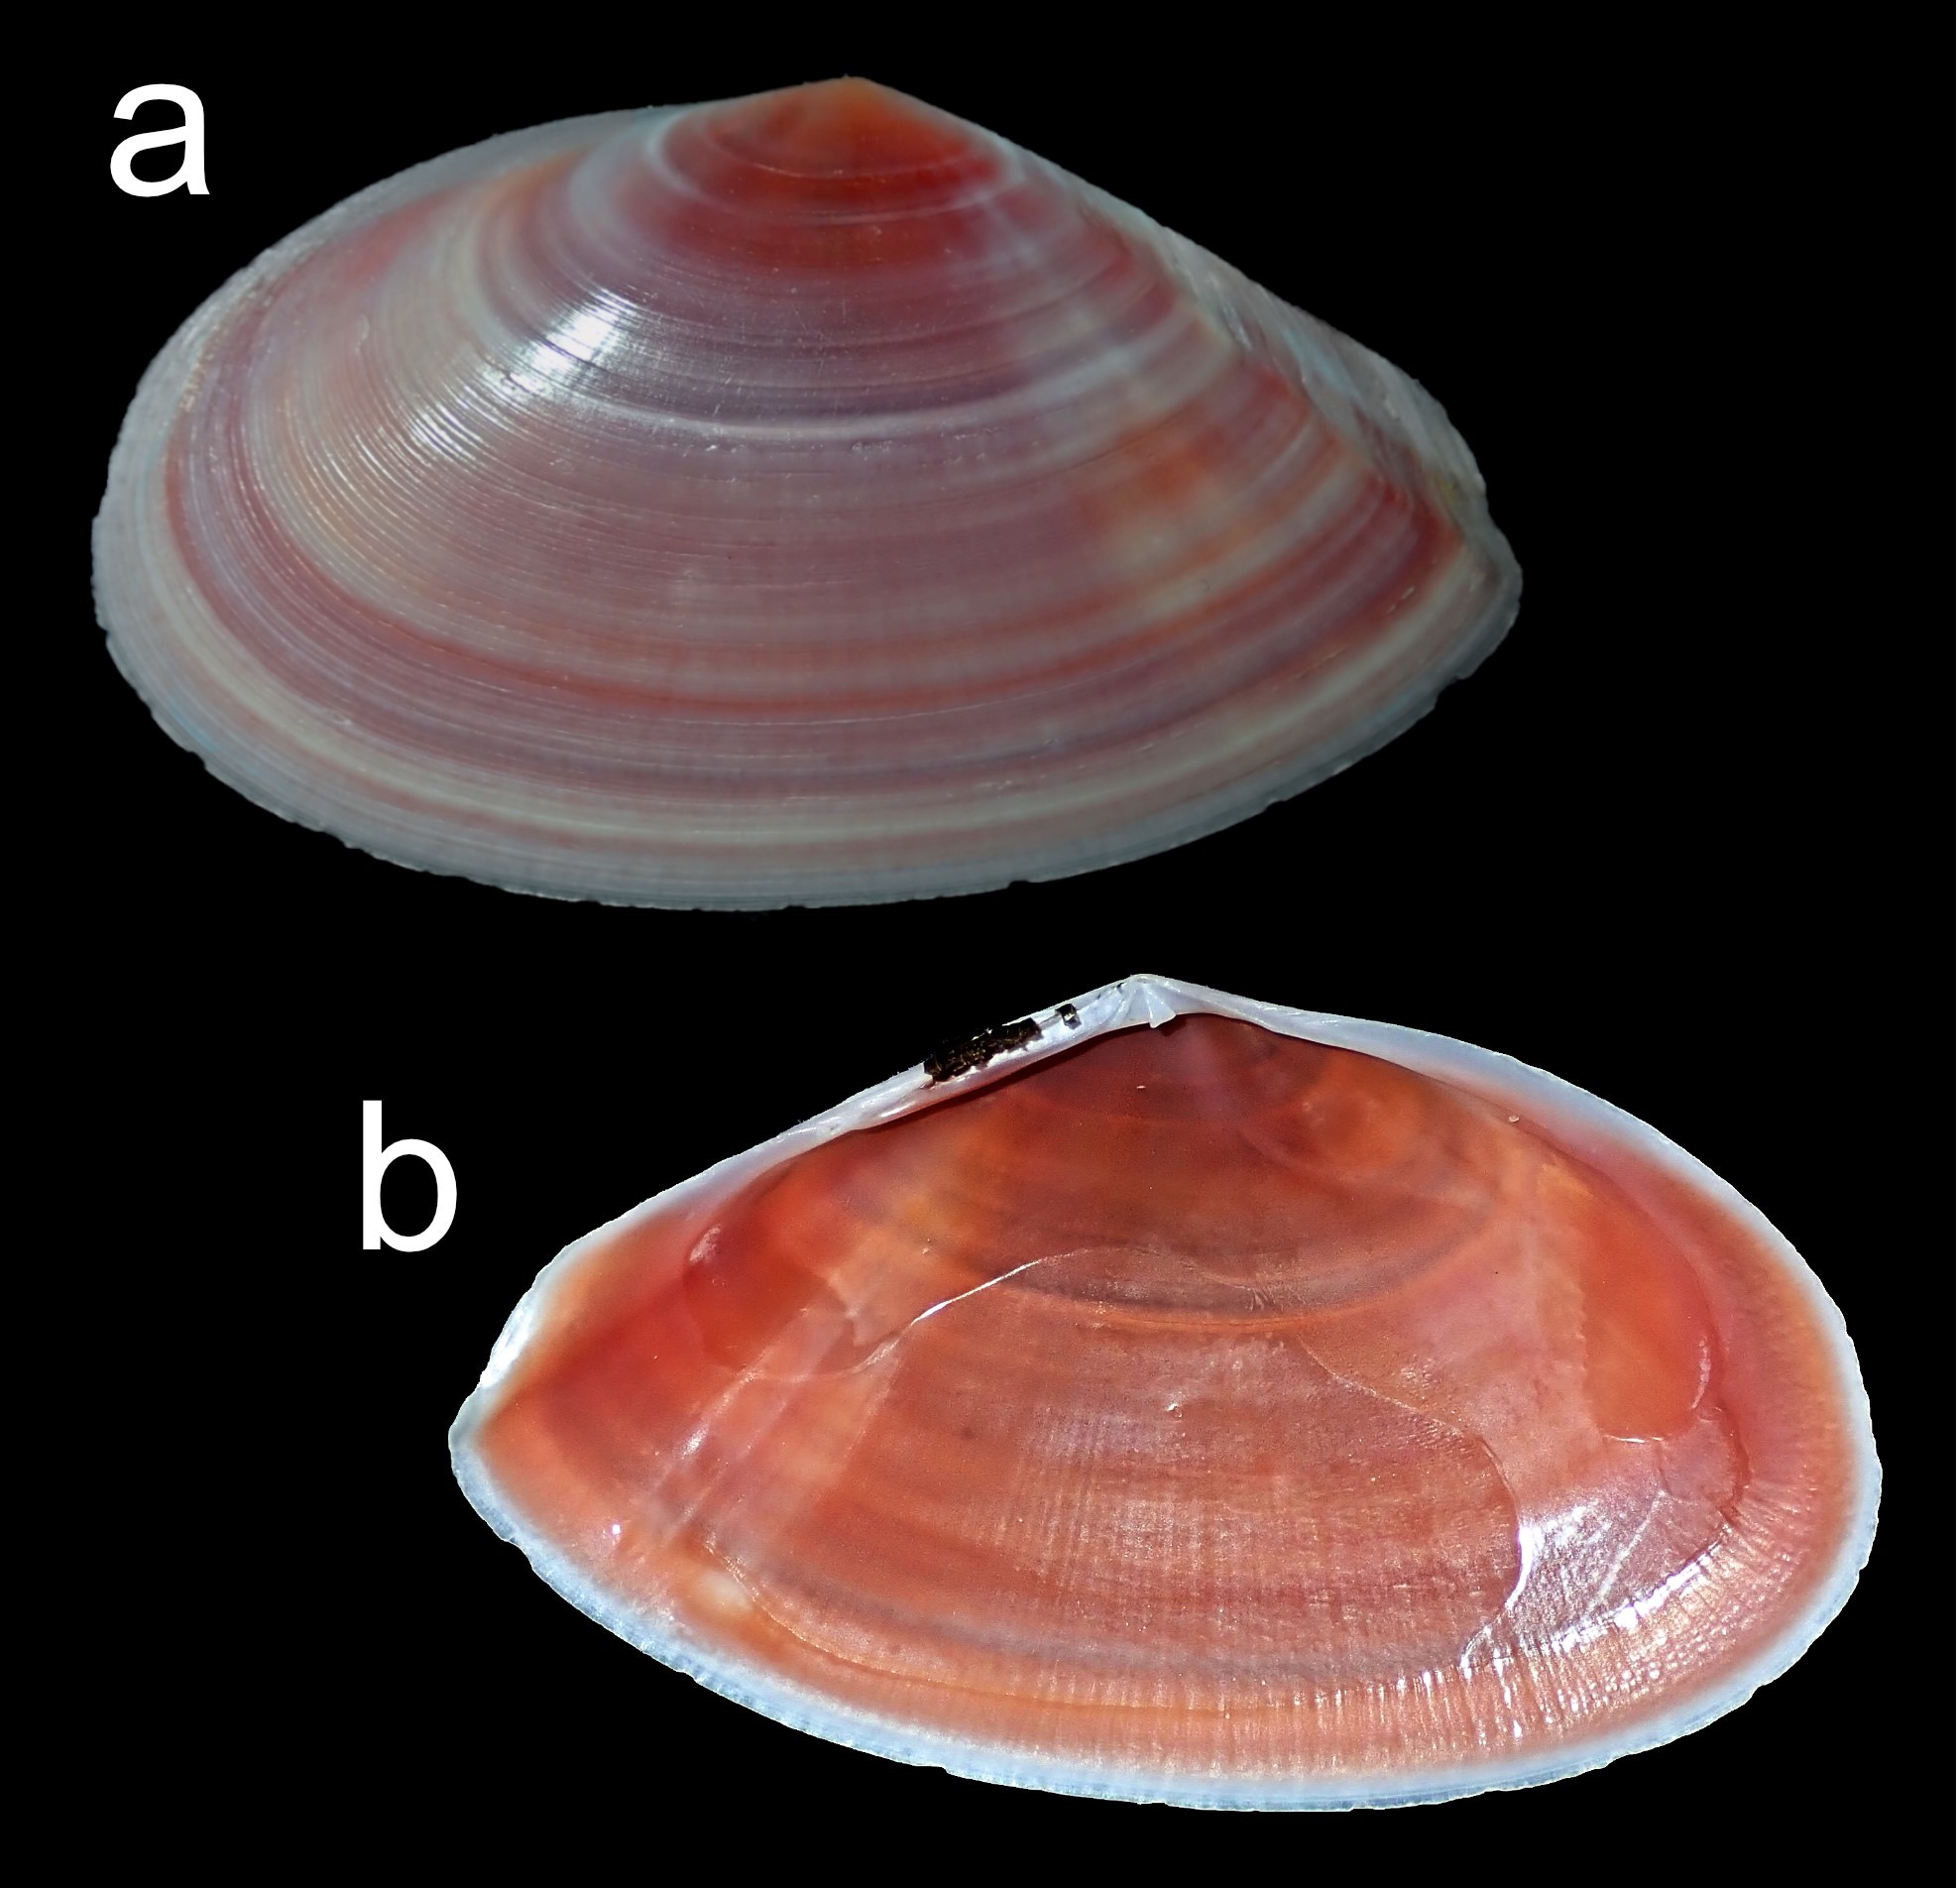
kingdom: Animalia
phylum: Mollusca
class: Bivalvia
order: Cardiida
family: Tellinidae
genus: Tellinota
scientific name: Tellinota albinella
